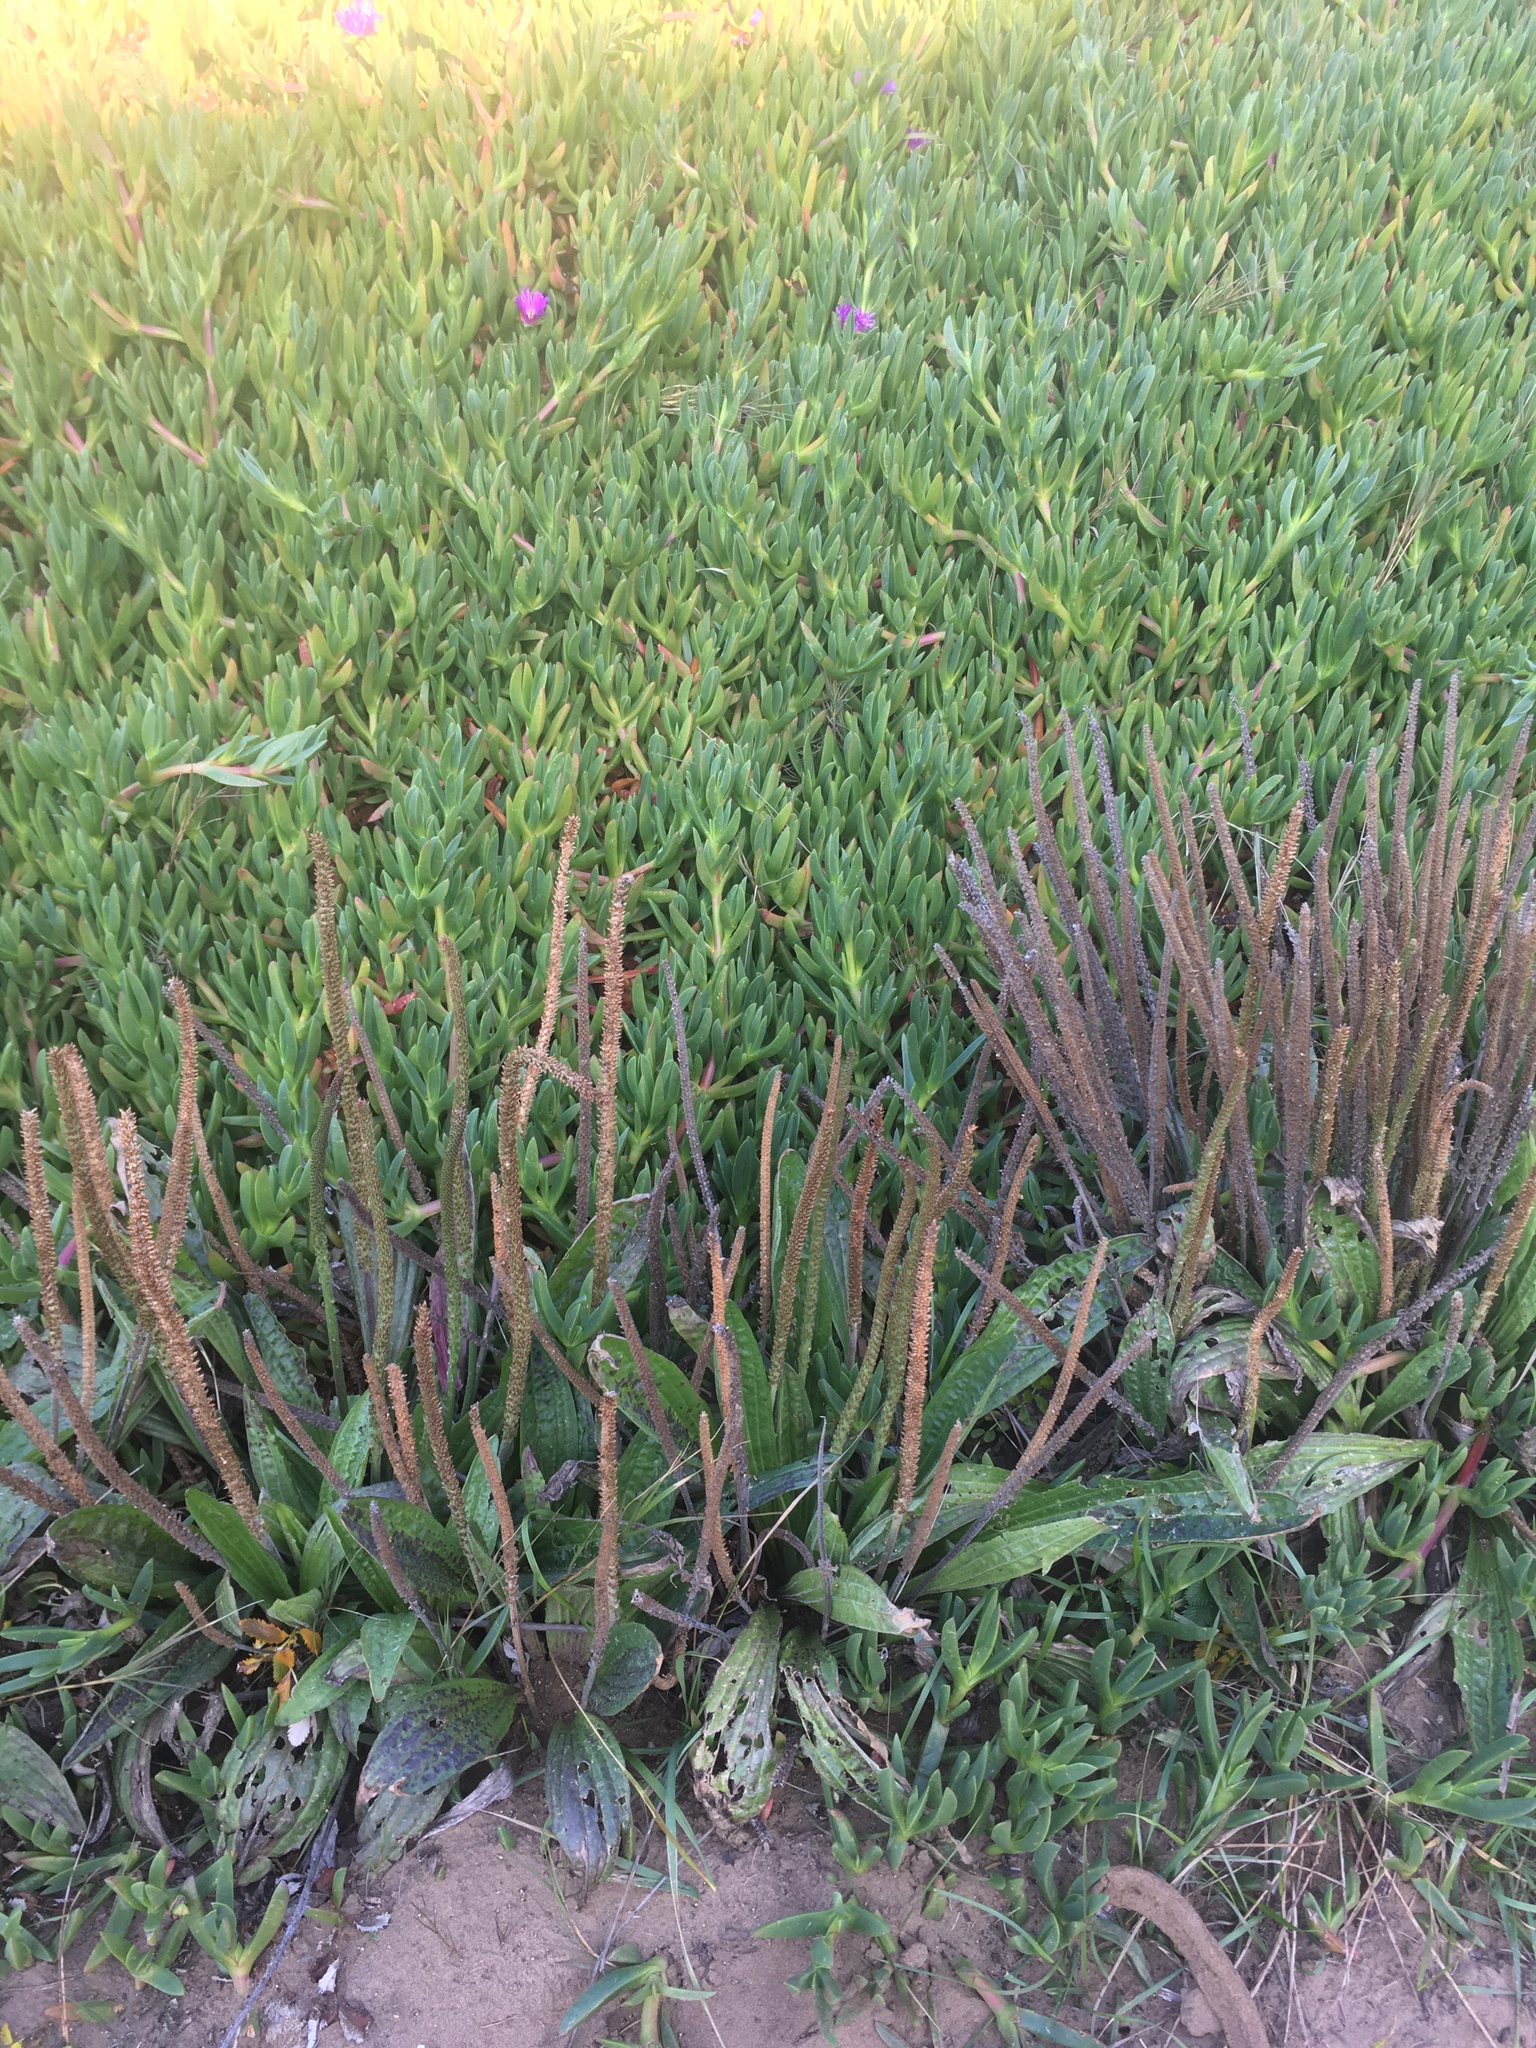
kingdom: Plantae
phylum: Tracheophyta
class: Magnoliopsida
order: Lamiales
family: Plantaginaceae
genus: Plantago
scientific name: Plantago subnuda
